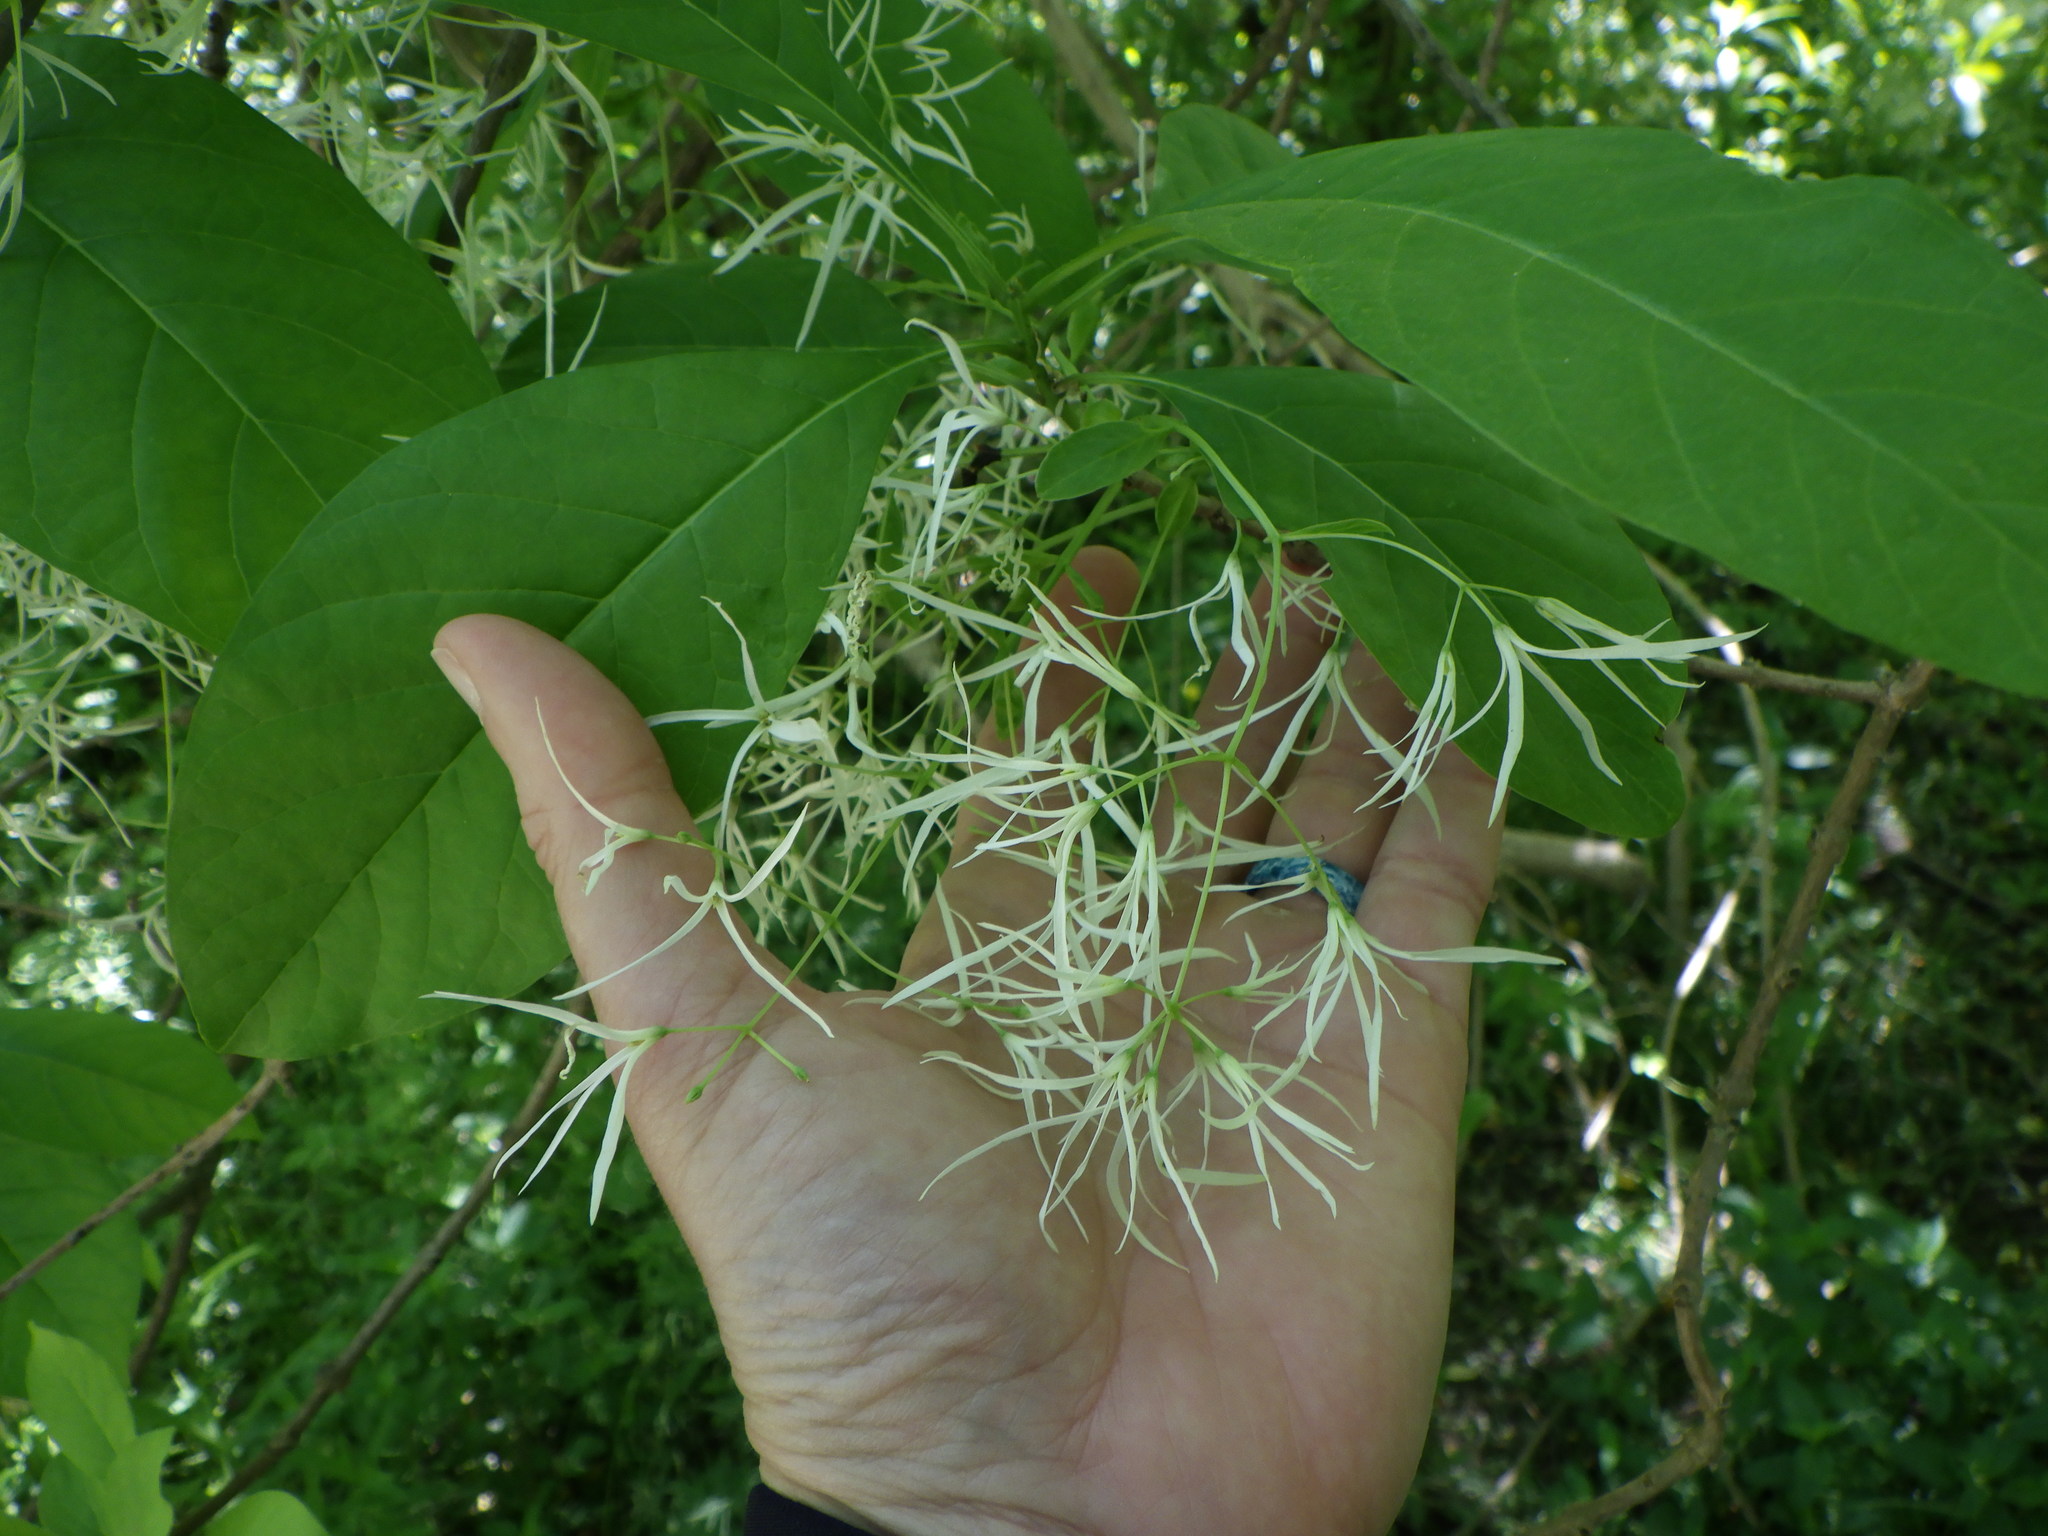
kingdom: Plantae
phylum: Tracheophyta
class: Magnoliopsida
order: Lamiales
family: Oleaceae
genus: Chionanthus
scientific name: Chionanthus virginicus
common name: American fringetree
